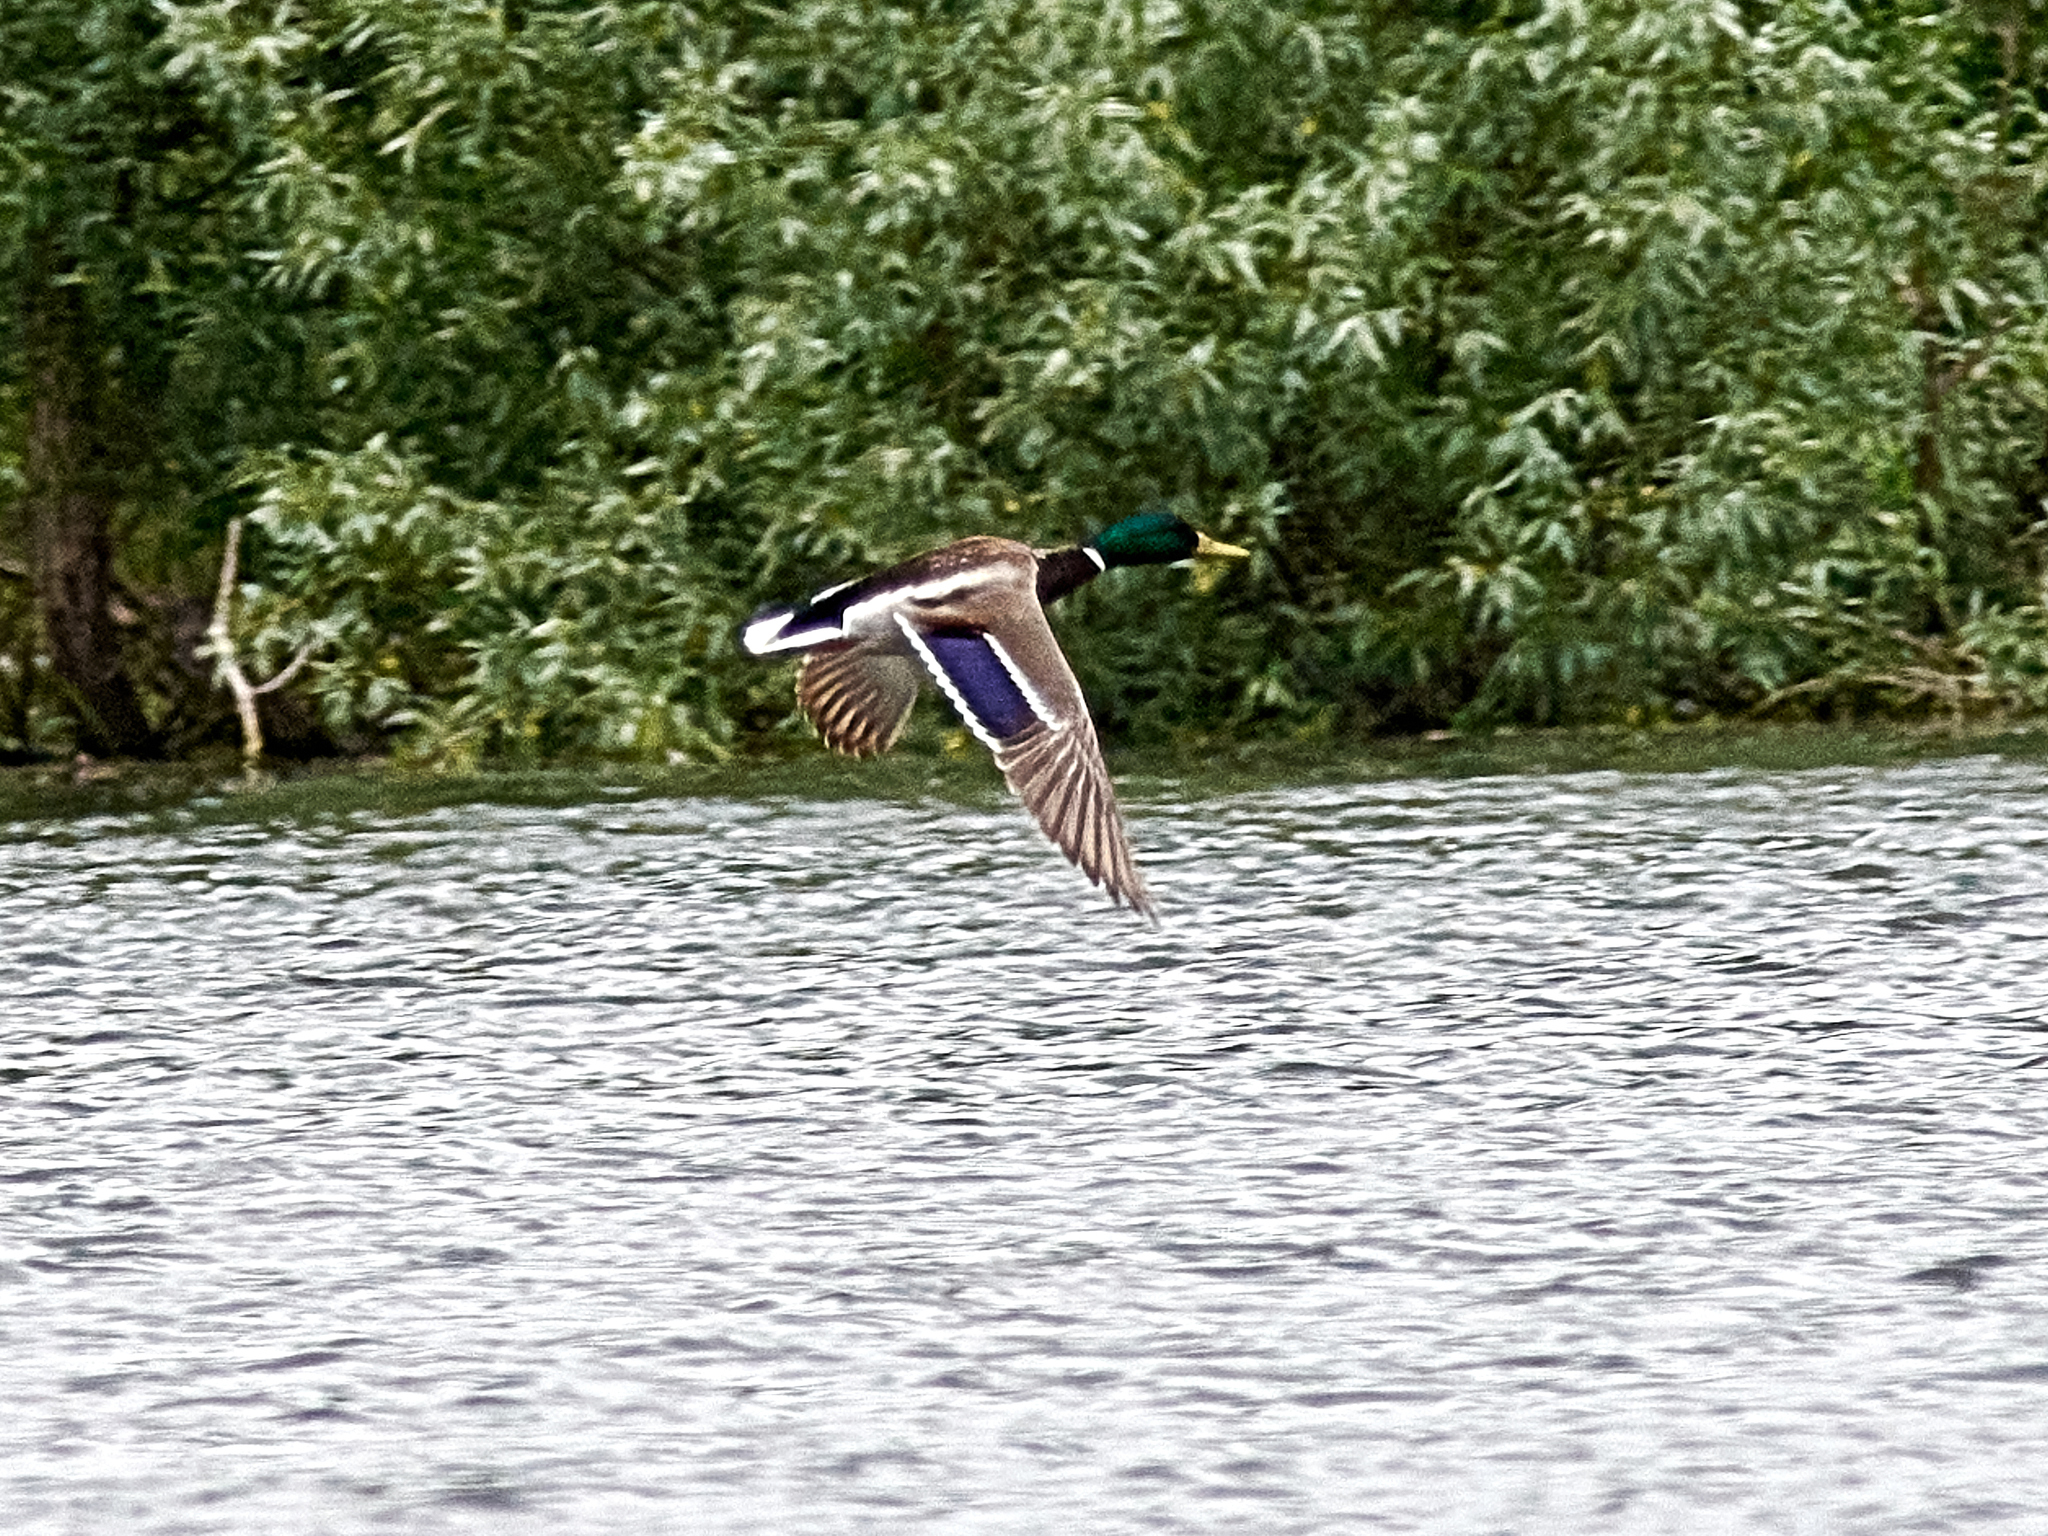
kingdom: Animalia
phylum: Chordata
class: Aves
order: Anseriformes
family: Anatidae
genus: Anas
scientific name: Anas platyrhynchos
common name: Mallard
